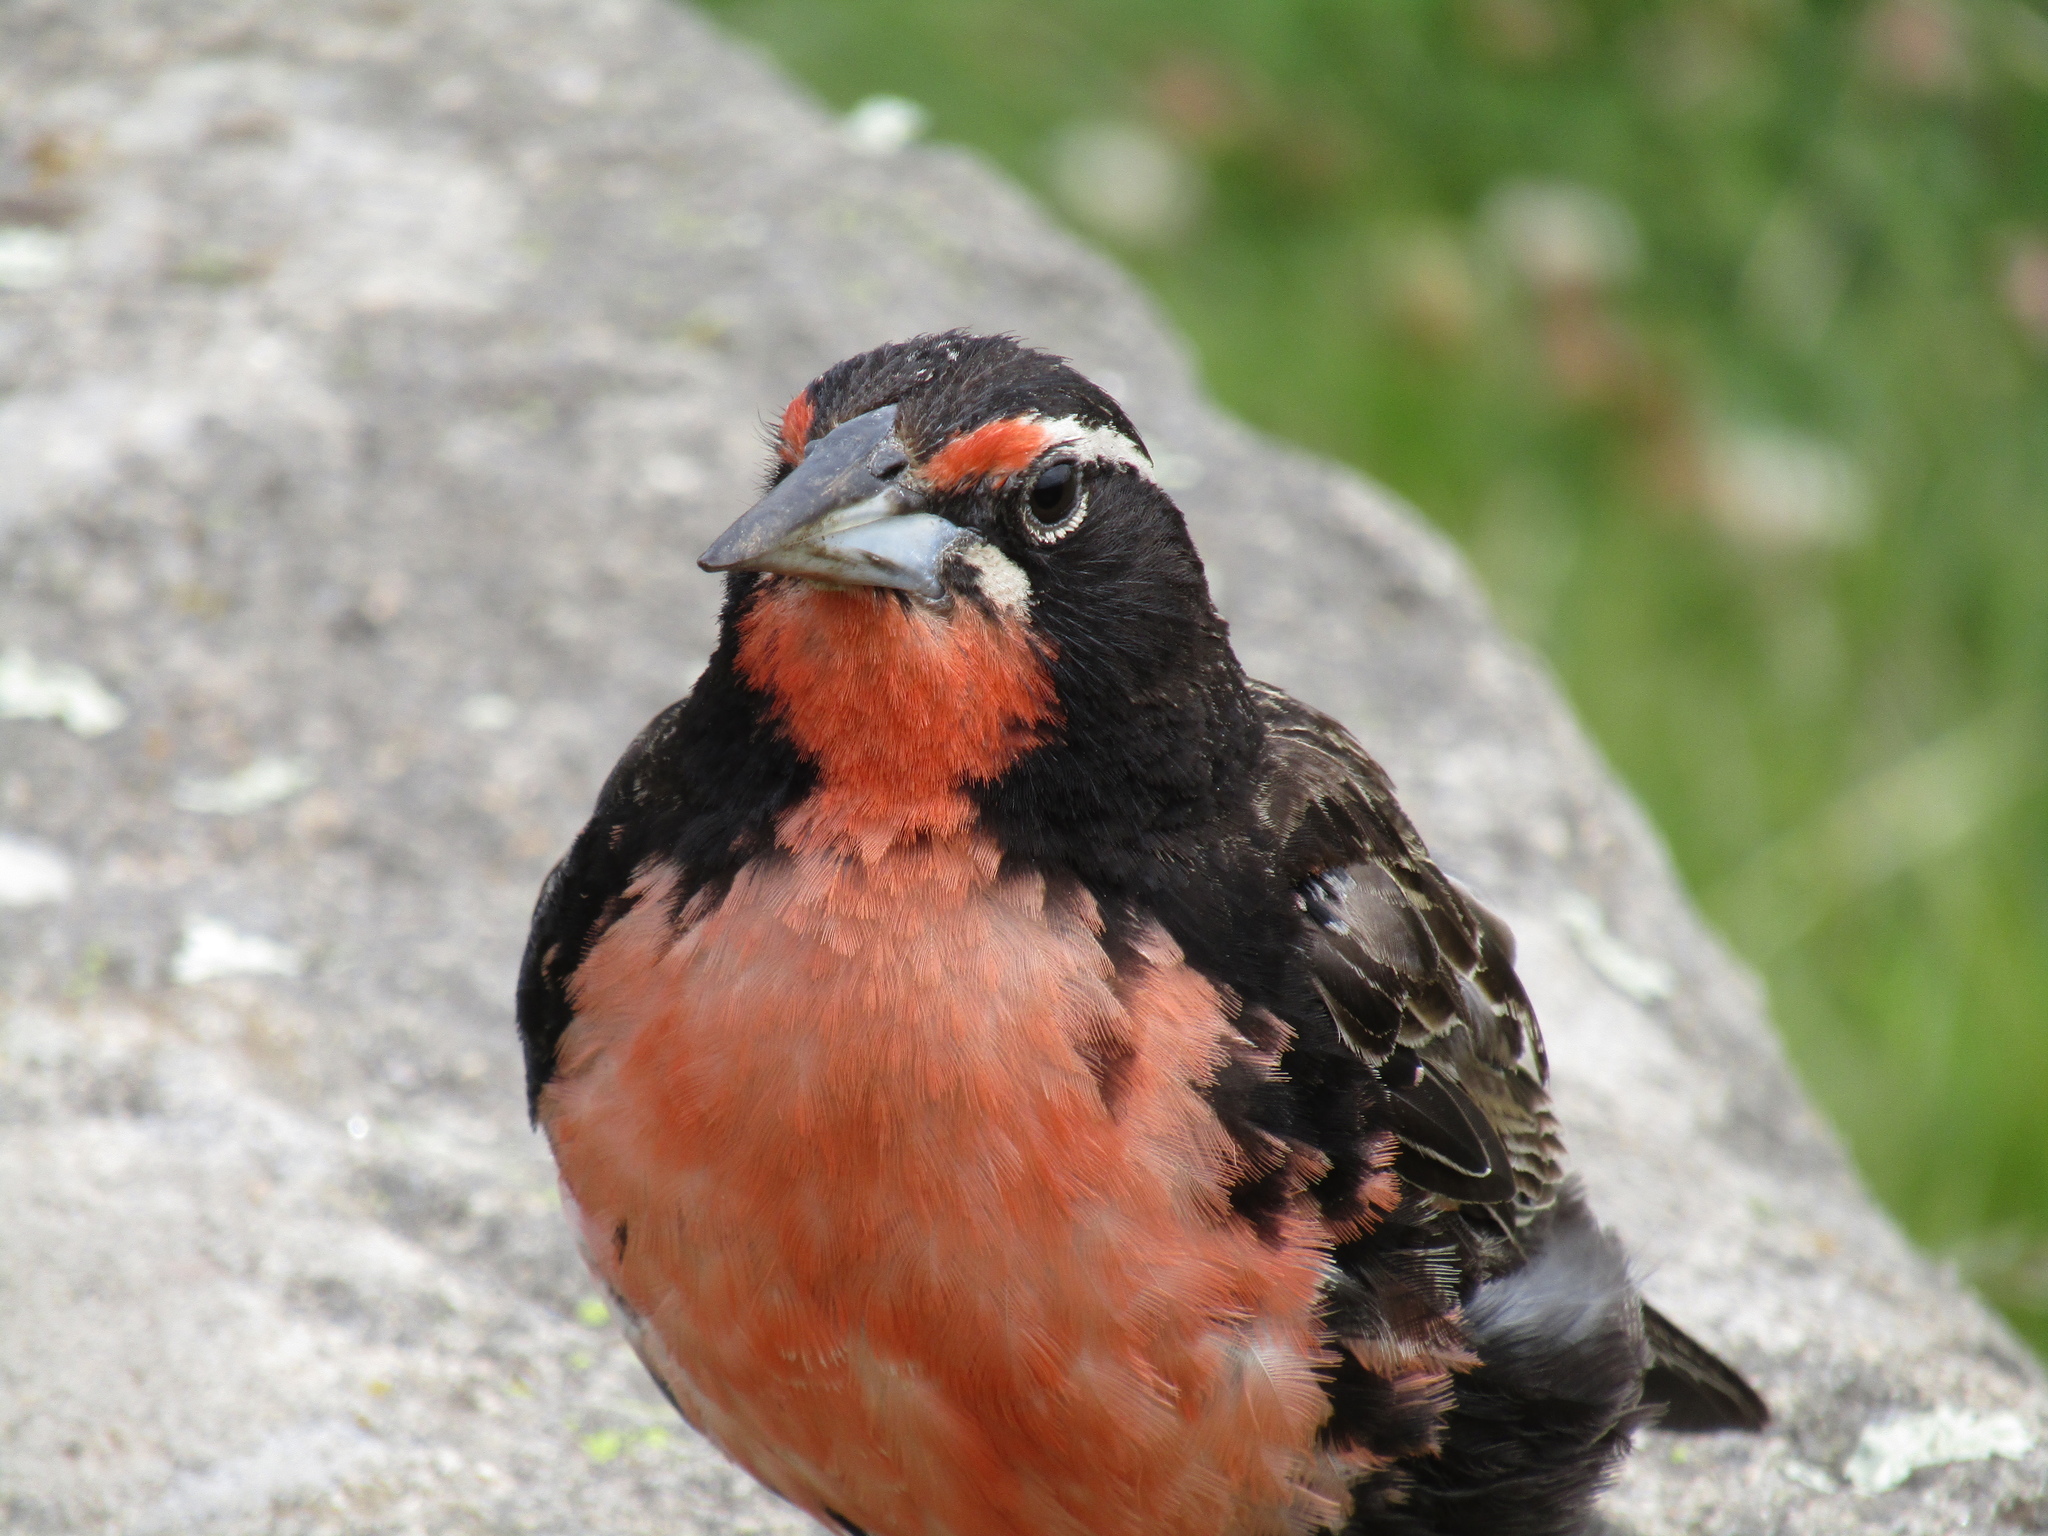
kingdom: Animalia
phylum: Chordata
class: Aves
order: Passeriformes
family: Icteridae
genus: Sturnella
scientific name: Sturnella loyca
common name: Long-tailed meadowlark
